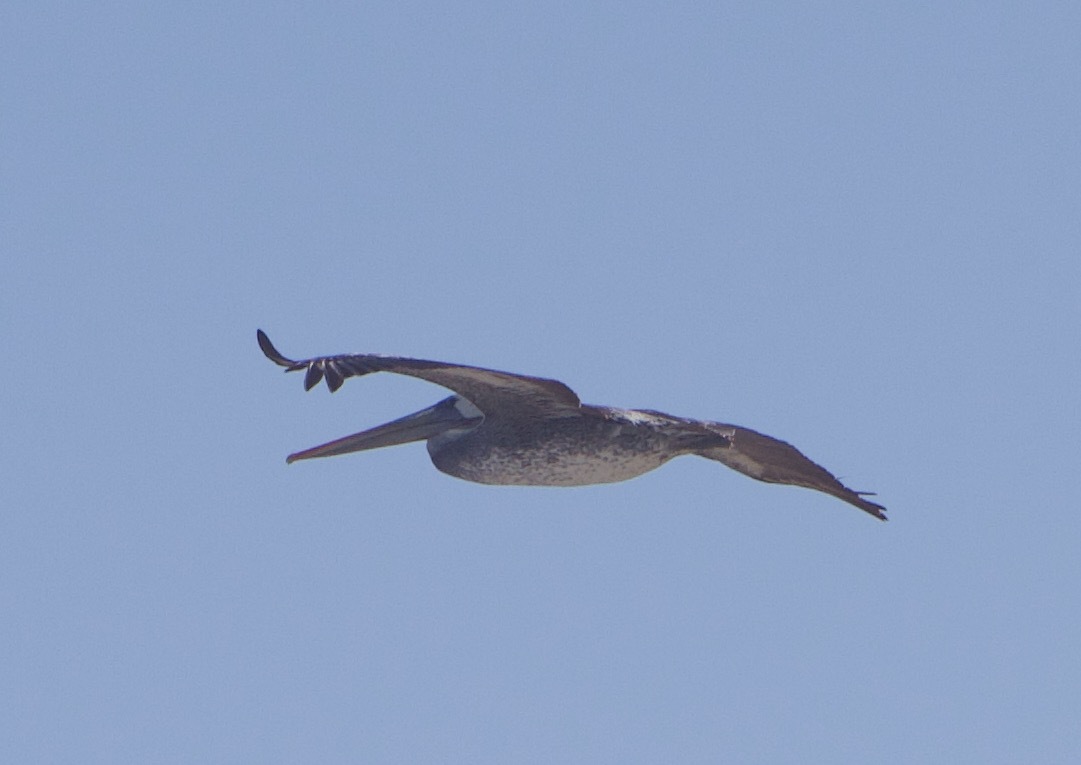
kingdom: Animalia
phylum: Chordata
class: Aves
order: Pelecaniformes
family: Pelecanidae
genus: Pelecanus
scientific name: Pelecanus thagus
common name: Peruvian pelican
